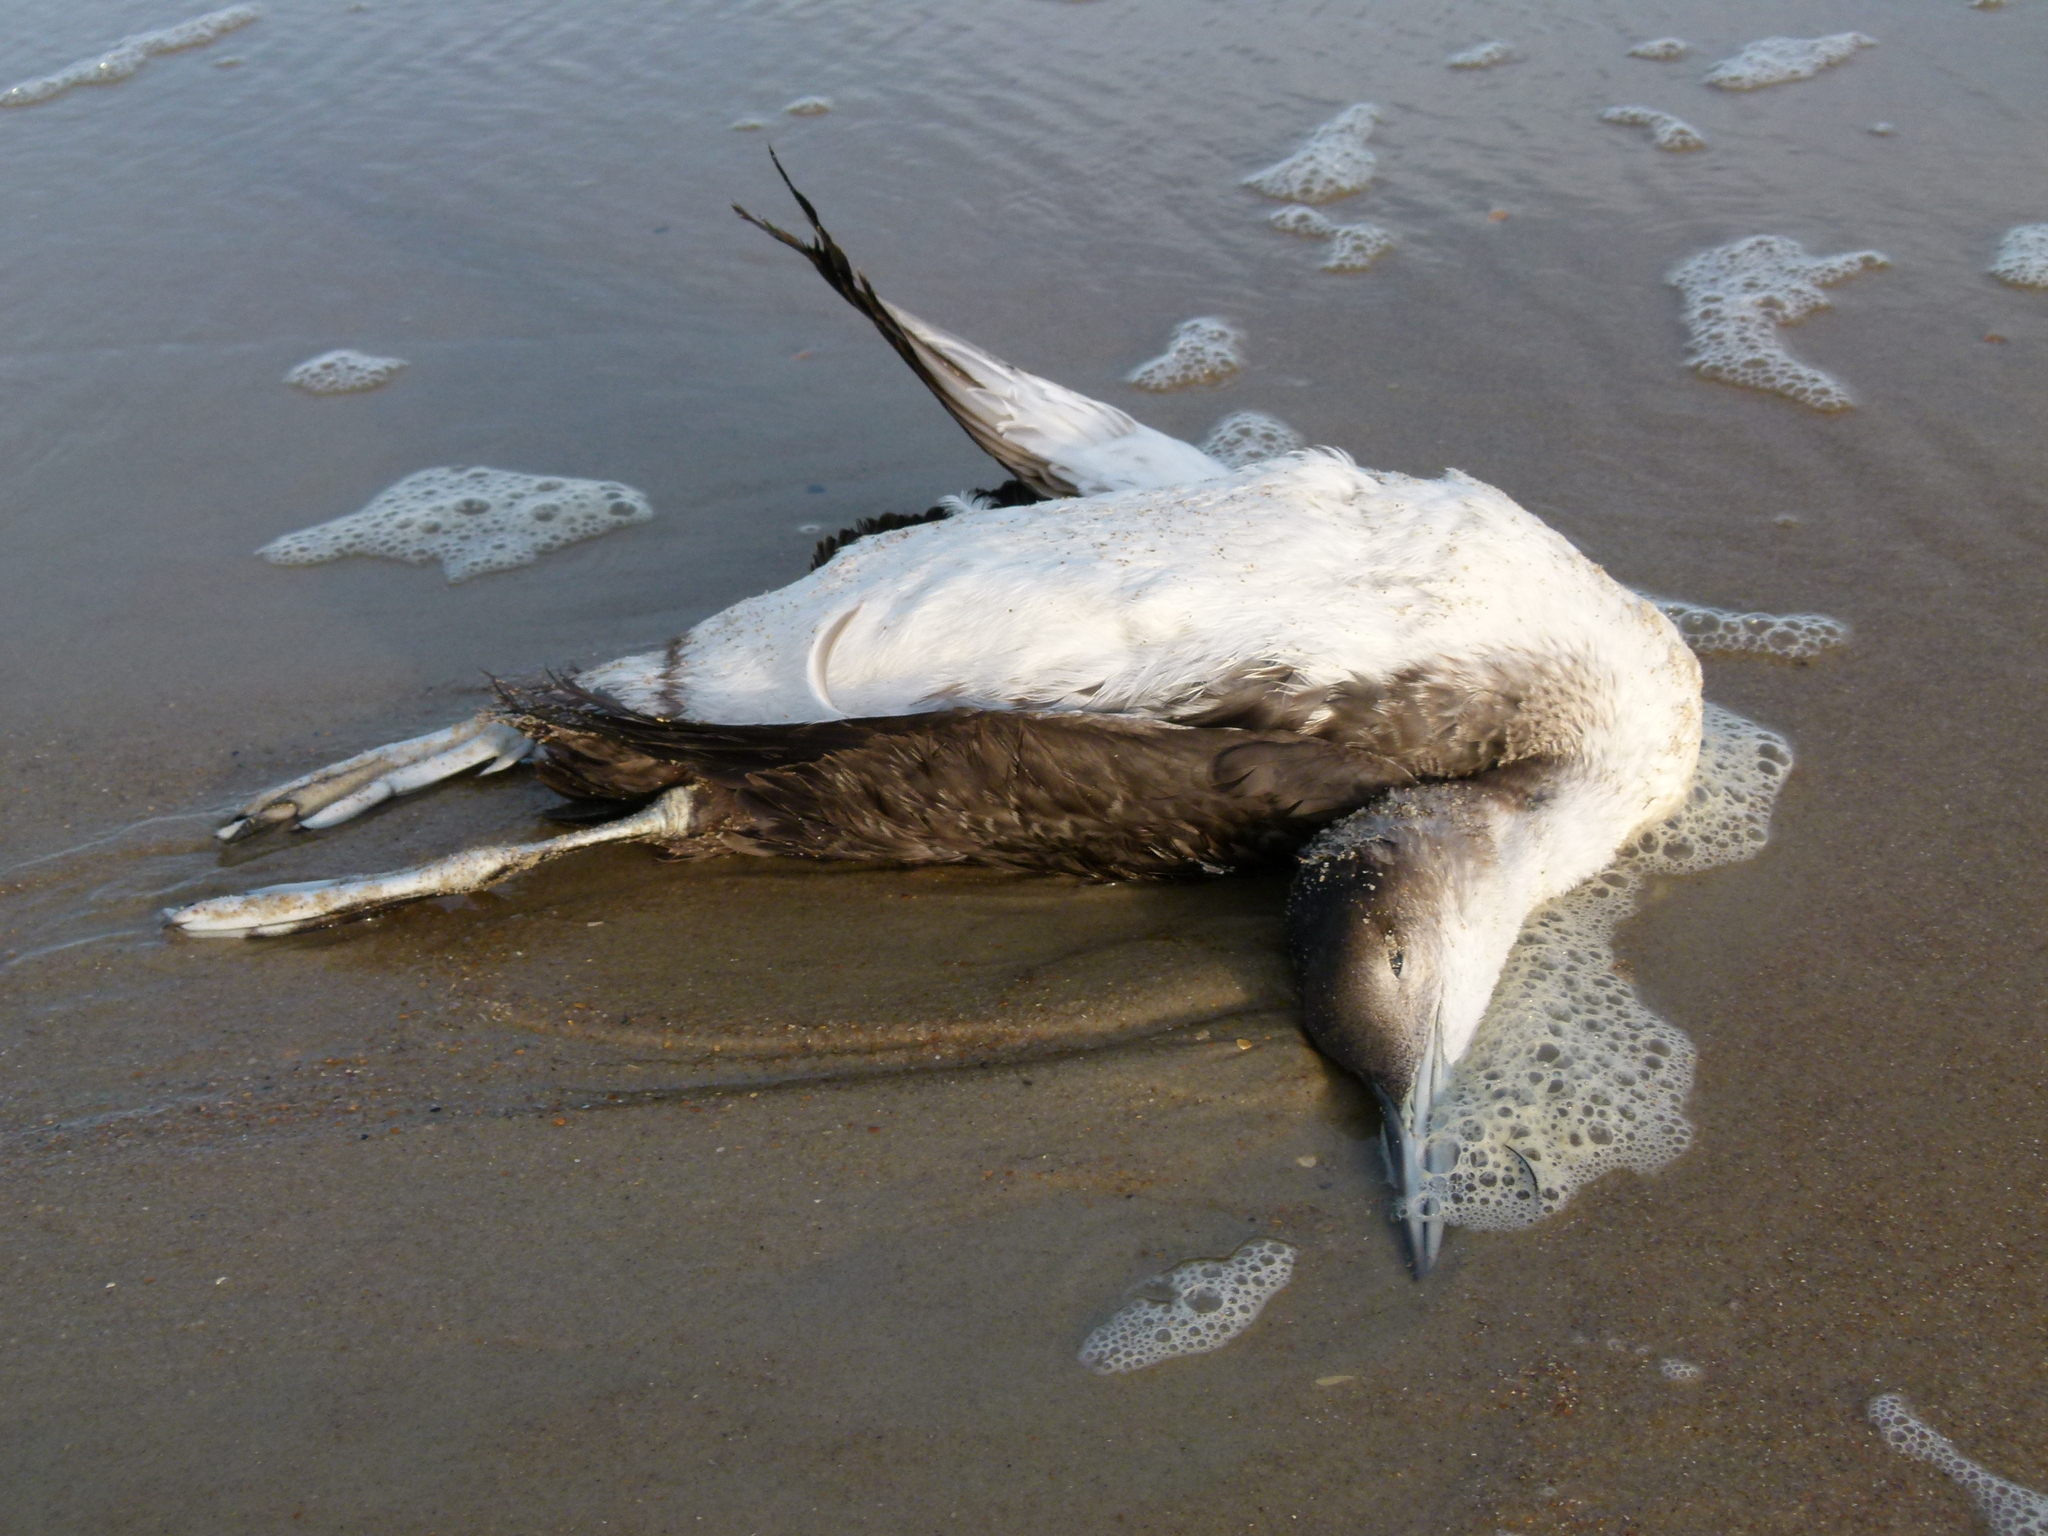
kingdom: Animalia
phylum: Chordata
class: Aves
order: Gaviiformes
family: Gaviidae
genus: Gavia
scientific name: Gavia immer
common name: Common loon
